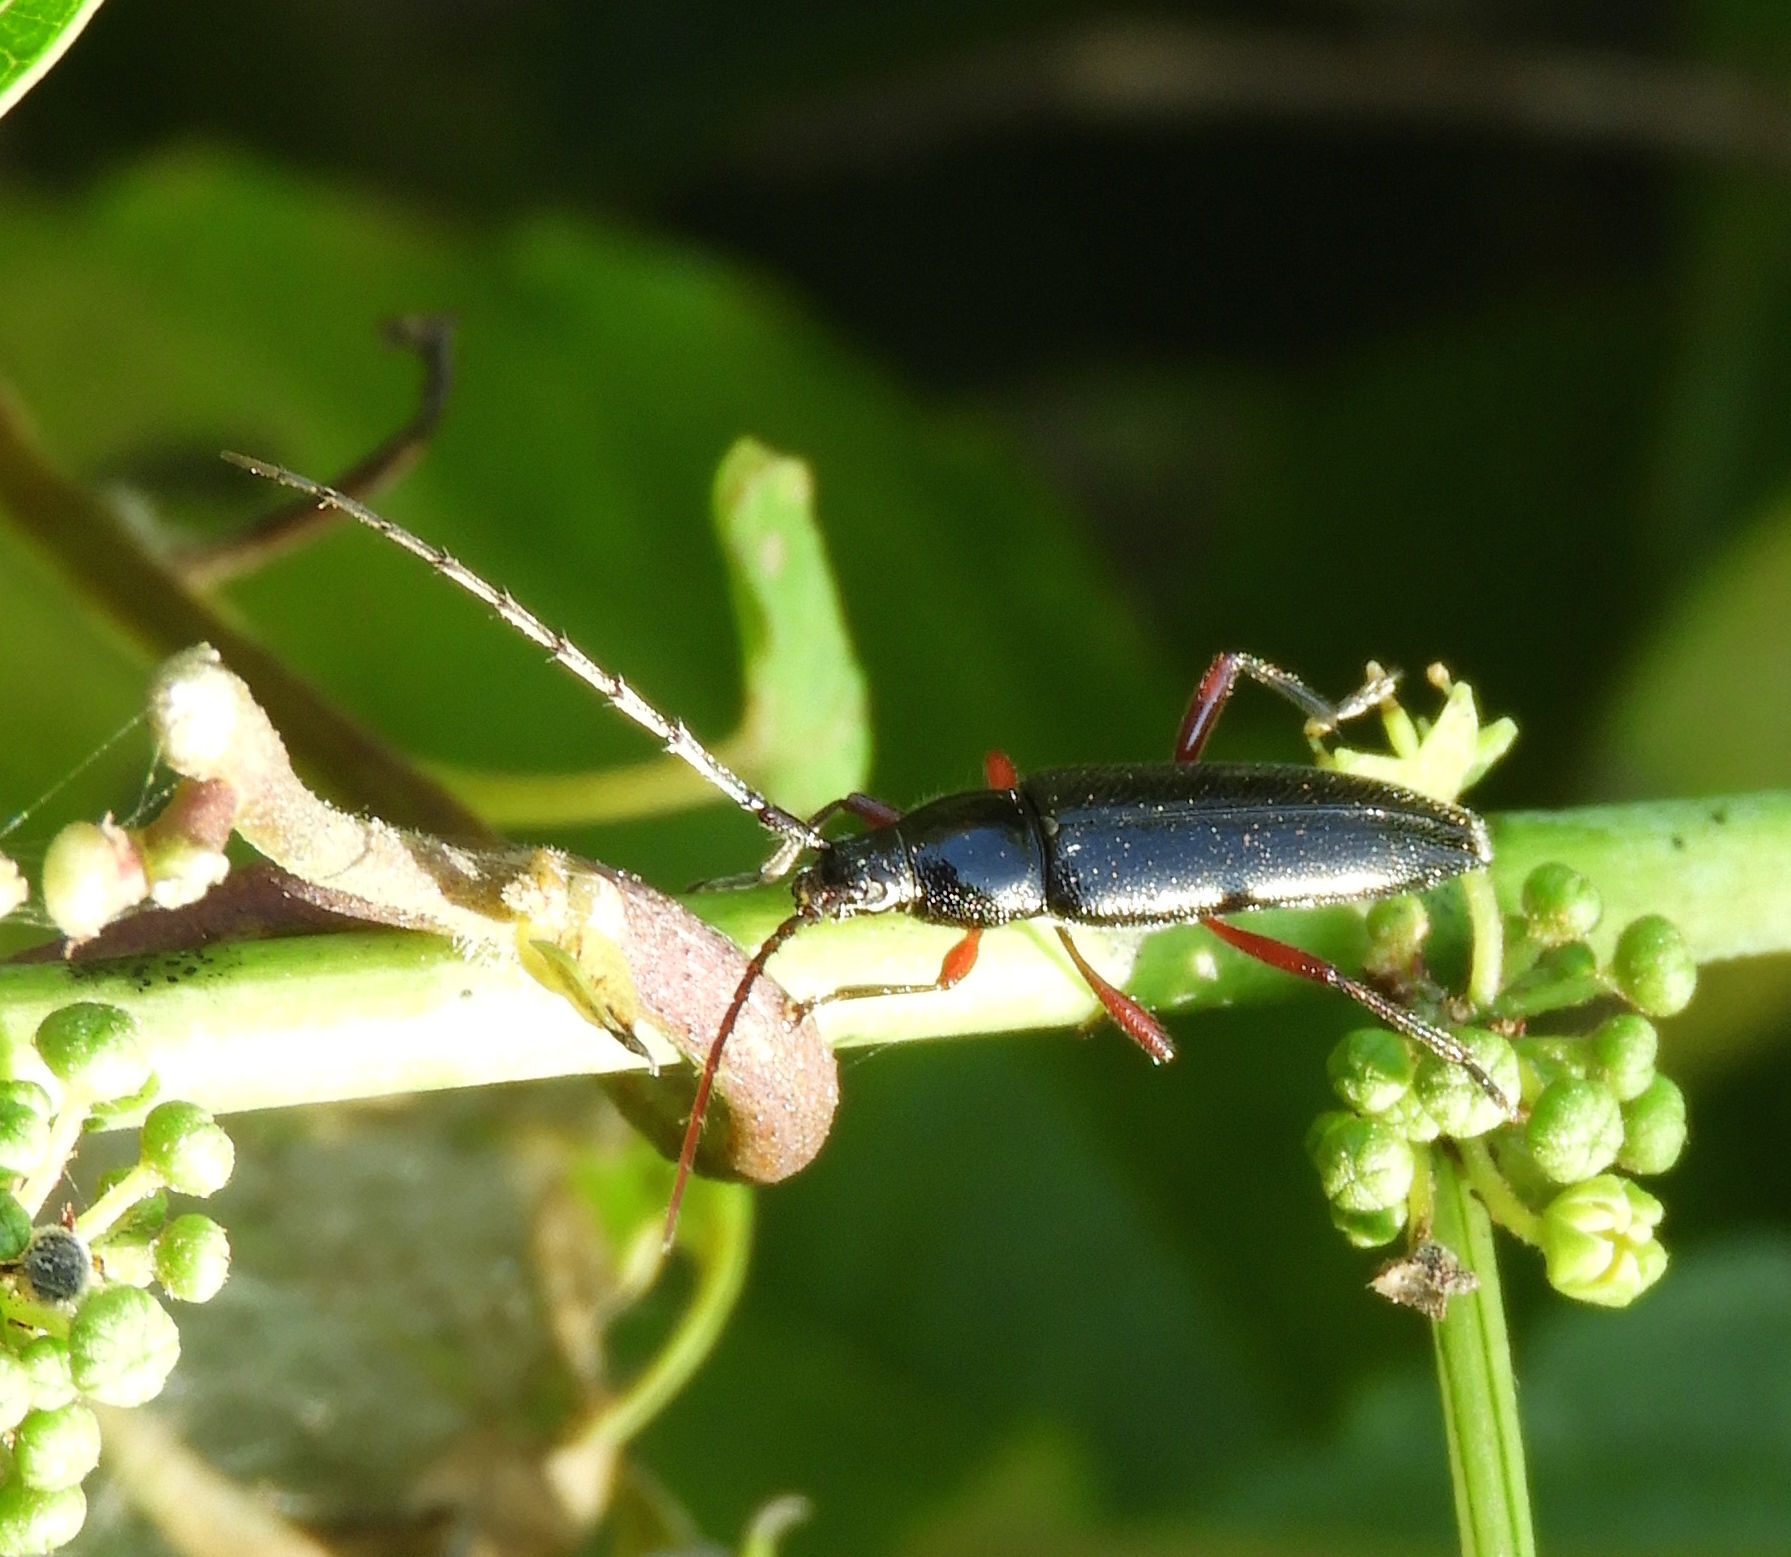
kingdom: Animalia
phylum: Arthropoda
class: Insecta
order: Coleoptera
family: Cerambycidae
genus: Stenosphenus
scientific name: Stenosphenus
